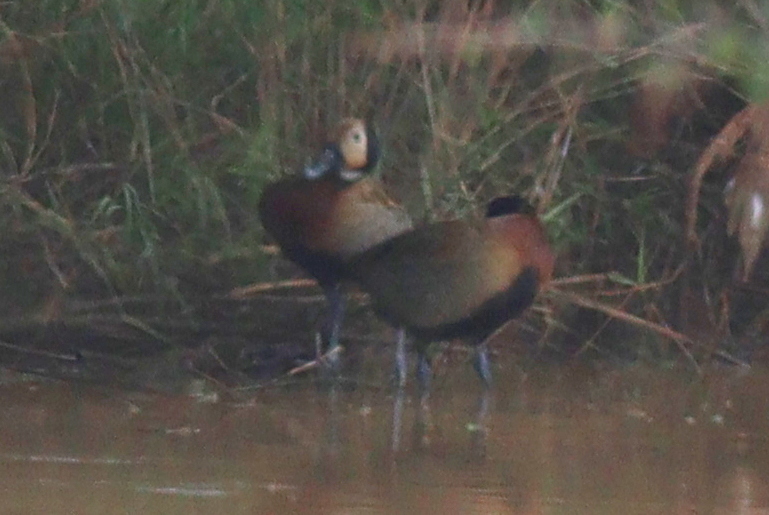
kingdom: Animalia
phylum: Chordata
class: Aves
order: Anseriformes
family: Anatidae
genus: Dendrocygna
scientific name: Dendrocygna viduata
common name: White-faced whistling duck
